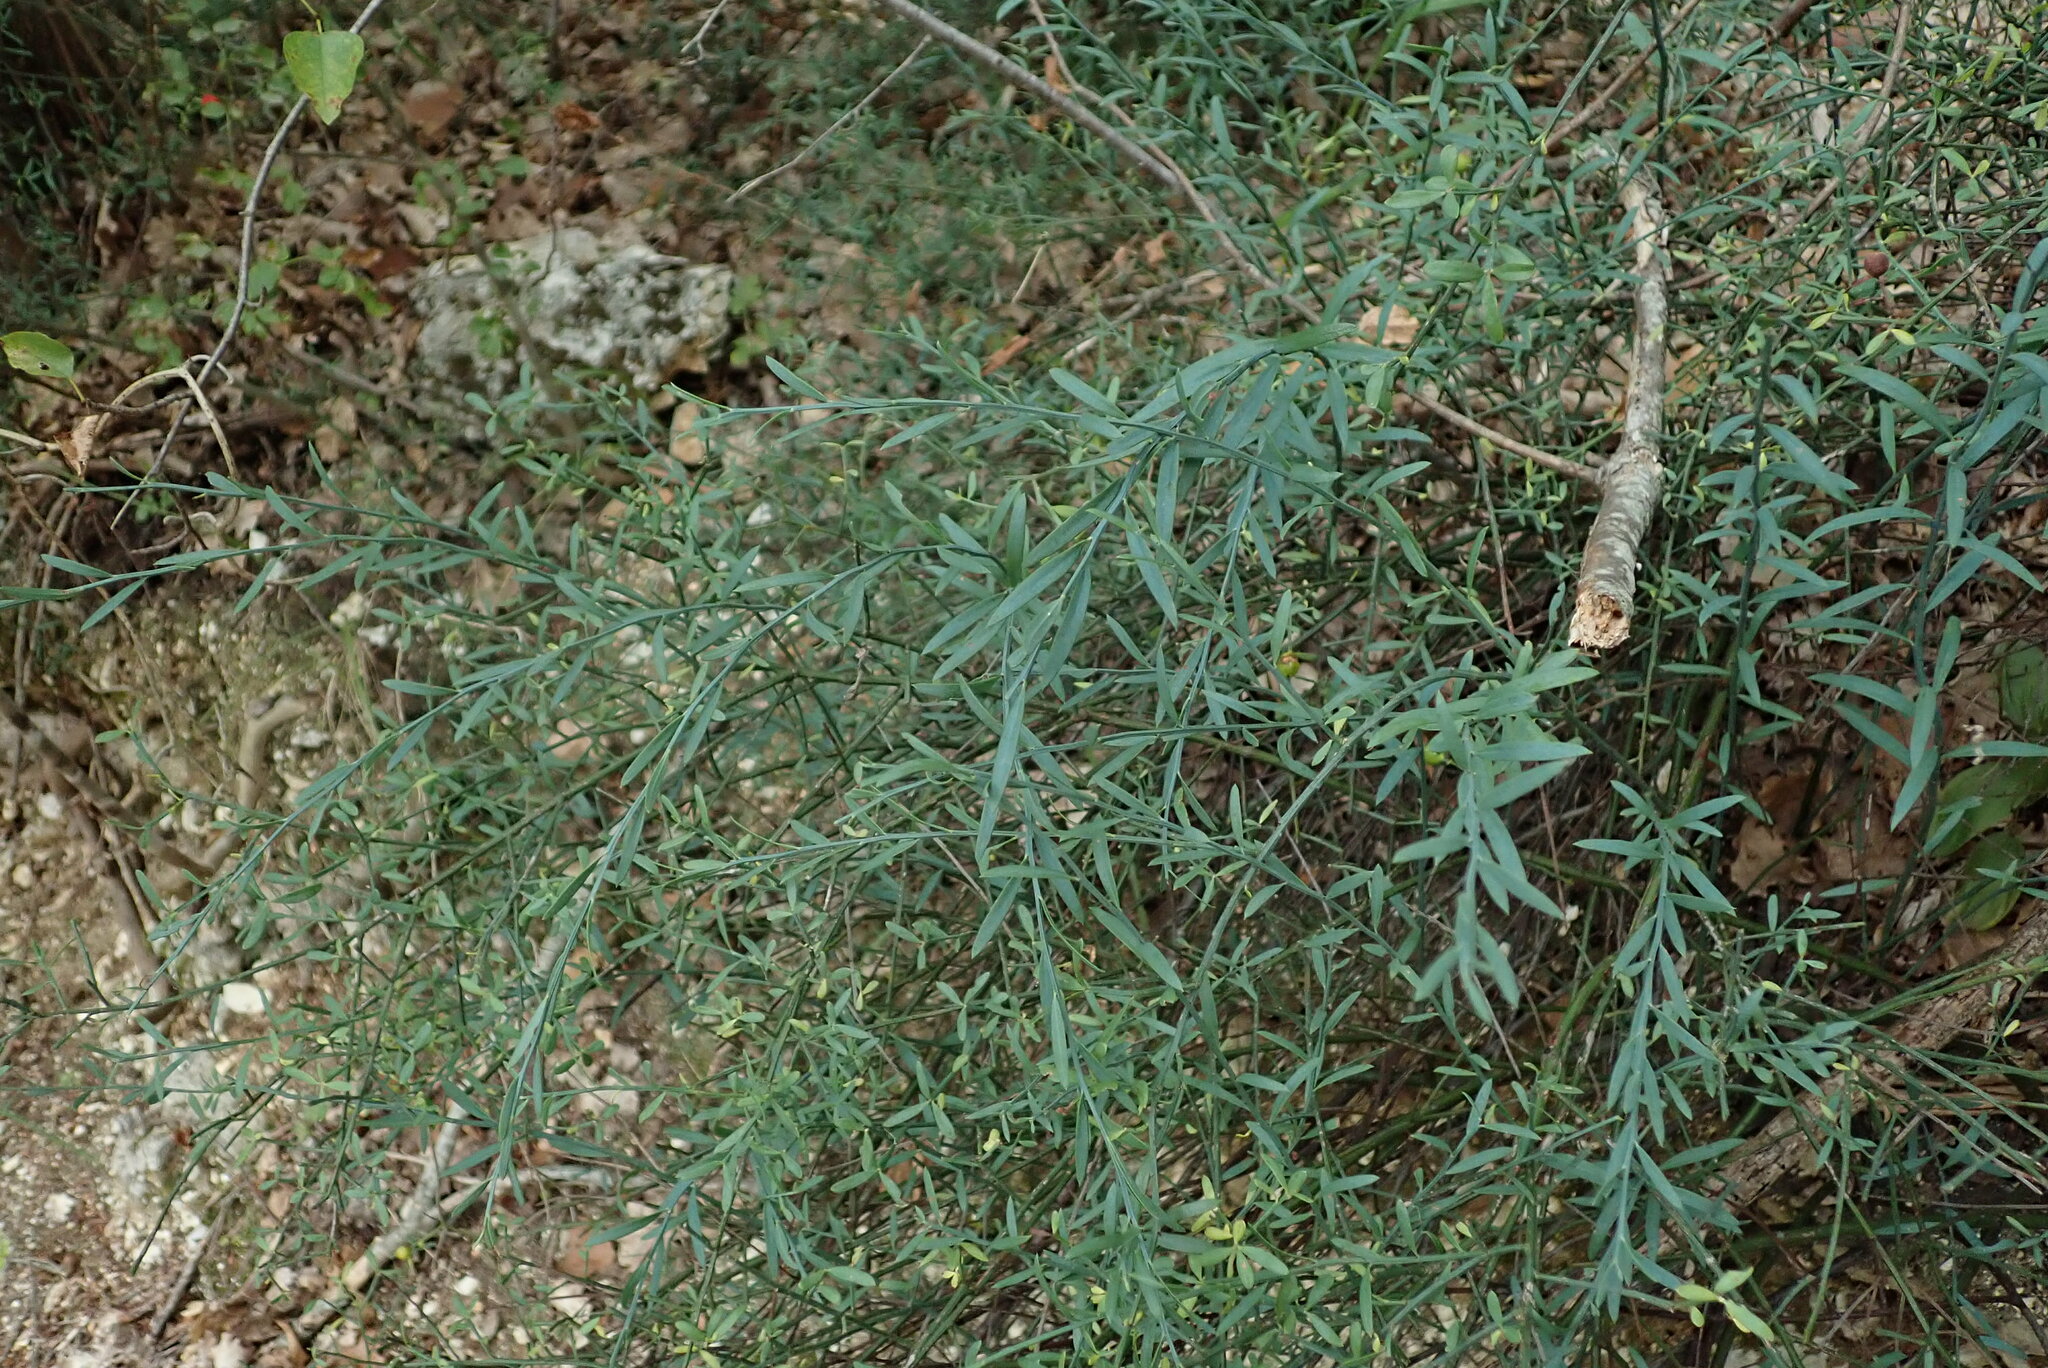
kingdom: Plantae
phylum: Tracheophyta
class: Magnoliopsida
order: Santalales
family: Santalaceae
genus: Osyris
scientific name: Osyris alba
